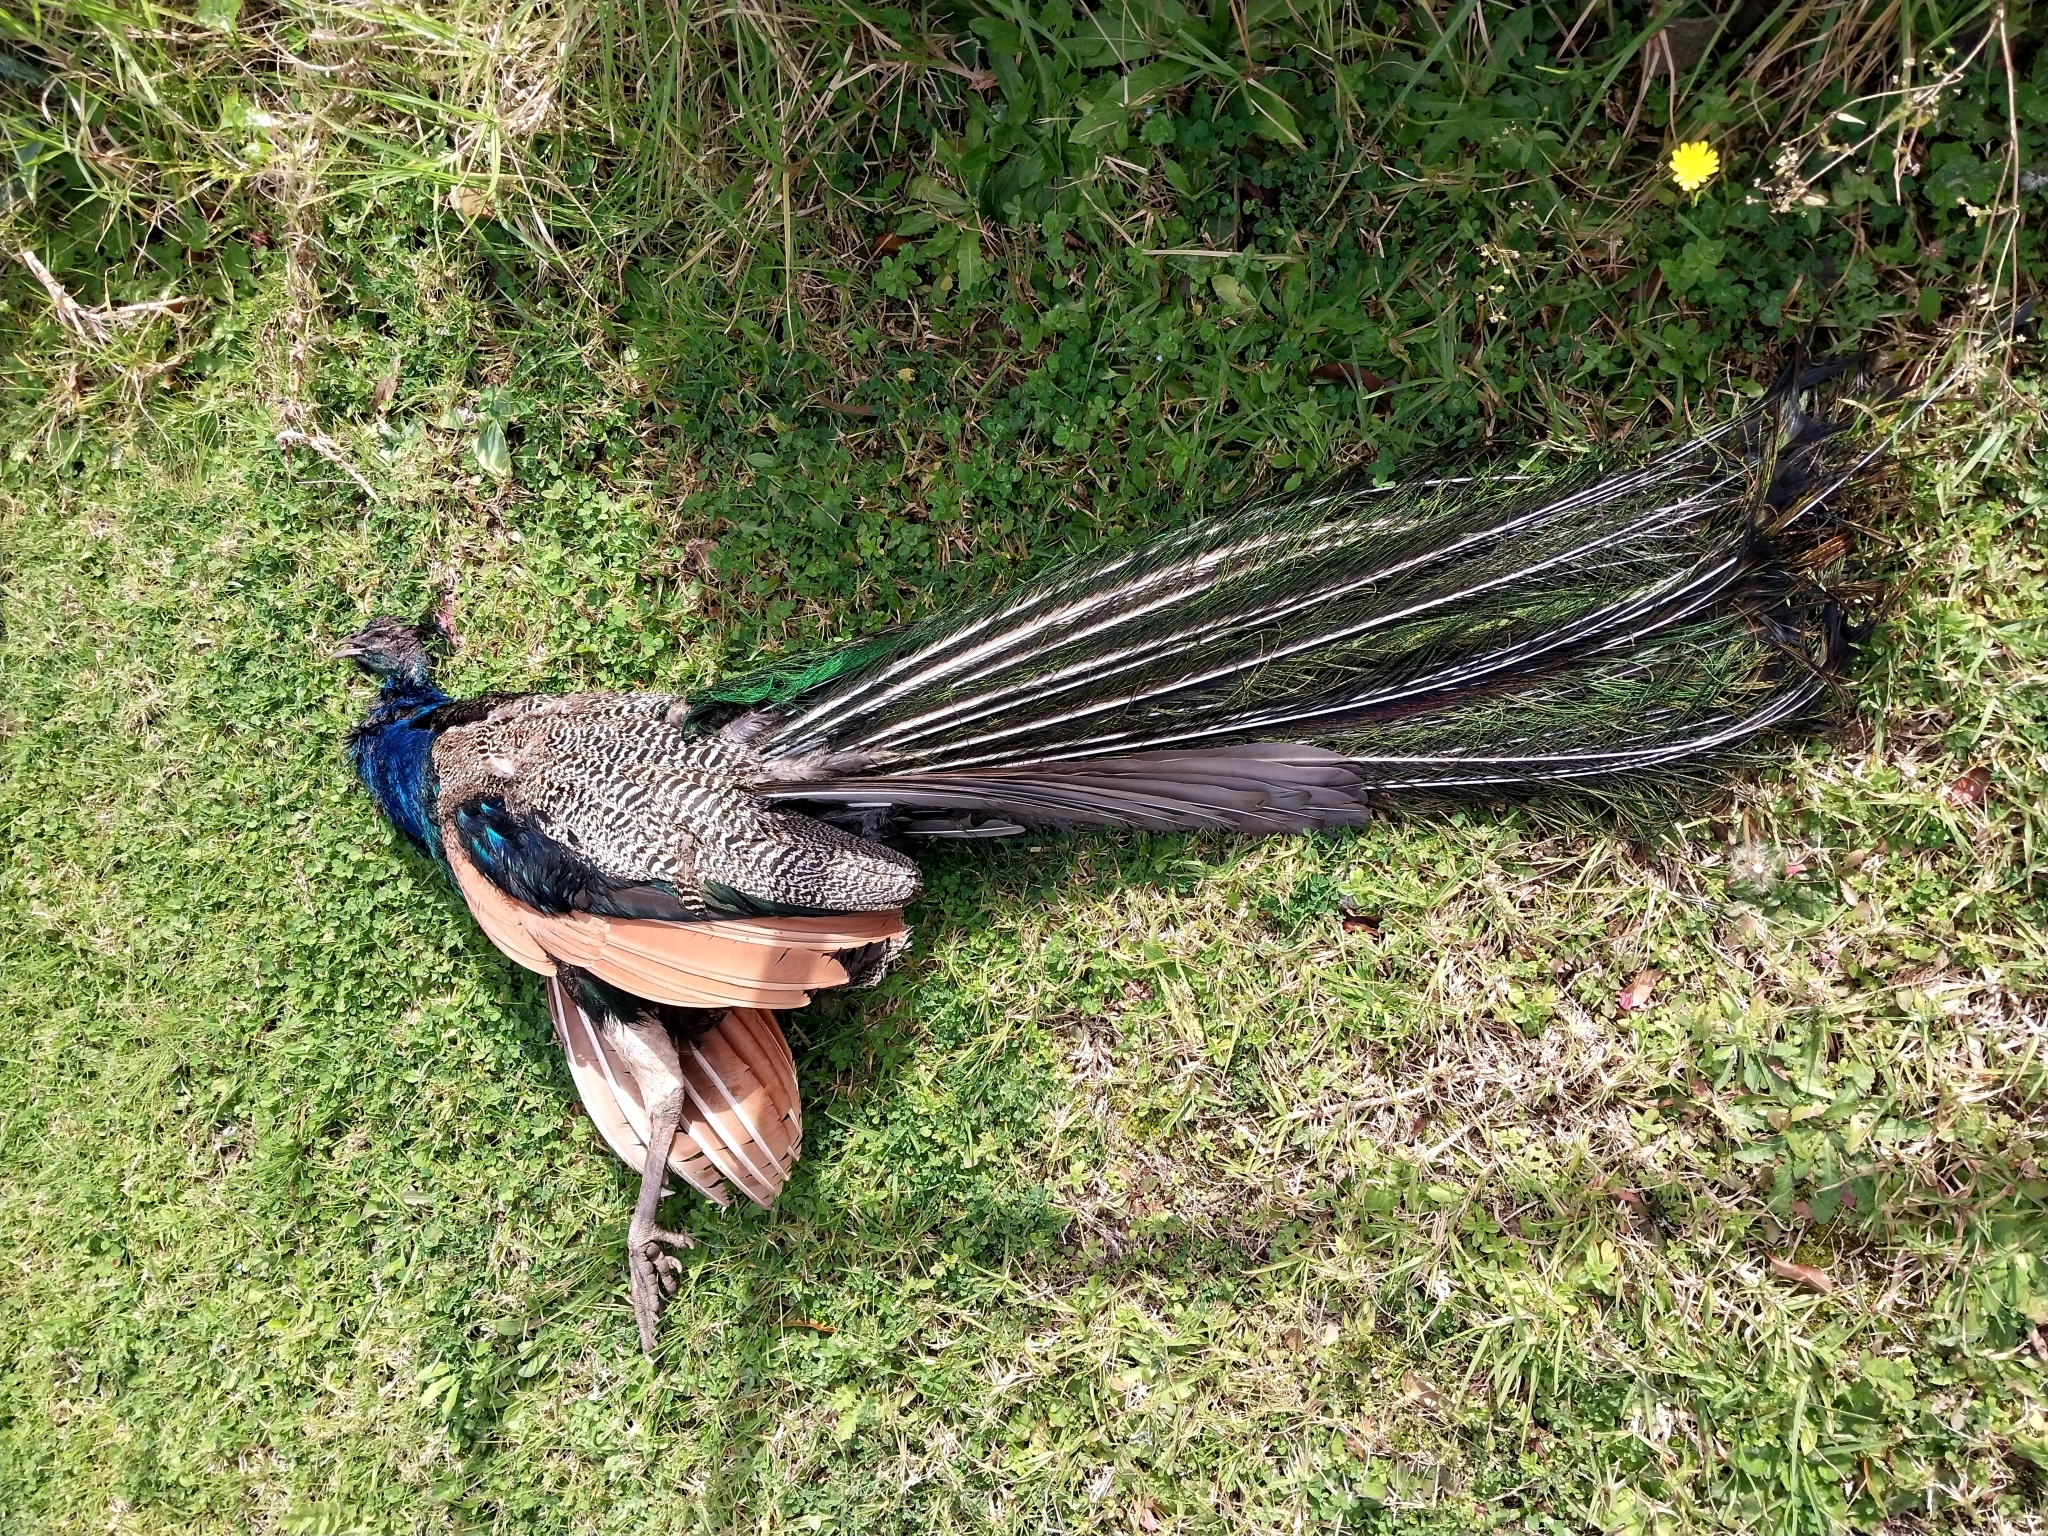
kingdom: Animalia
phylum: Chordata
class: Aves
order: Galliformes
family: Phasianidae
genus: Pavo
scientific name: Pavo cristatus
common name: Indian peafowl
